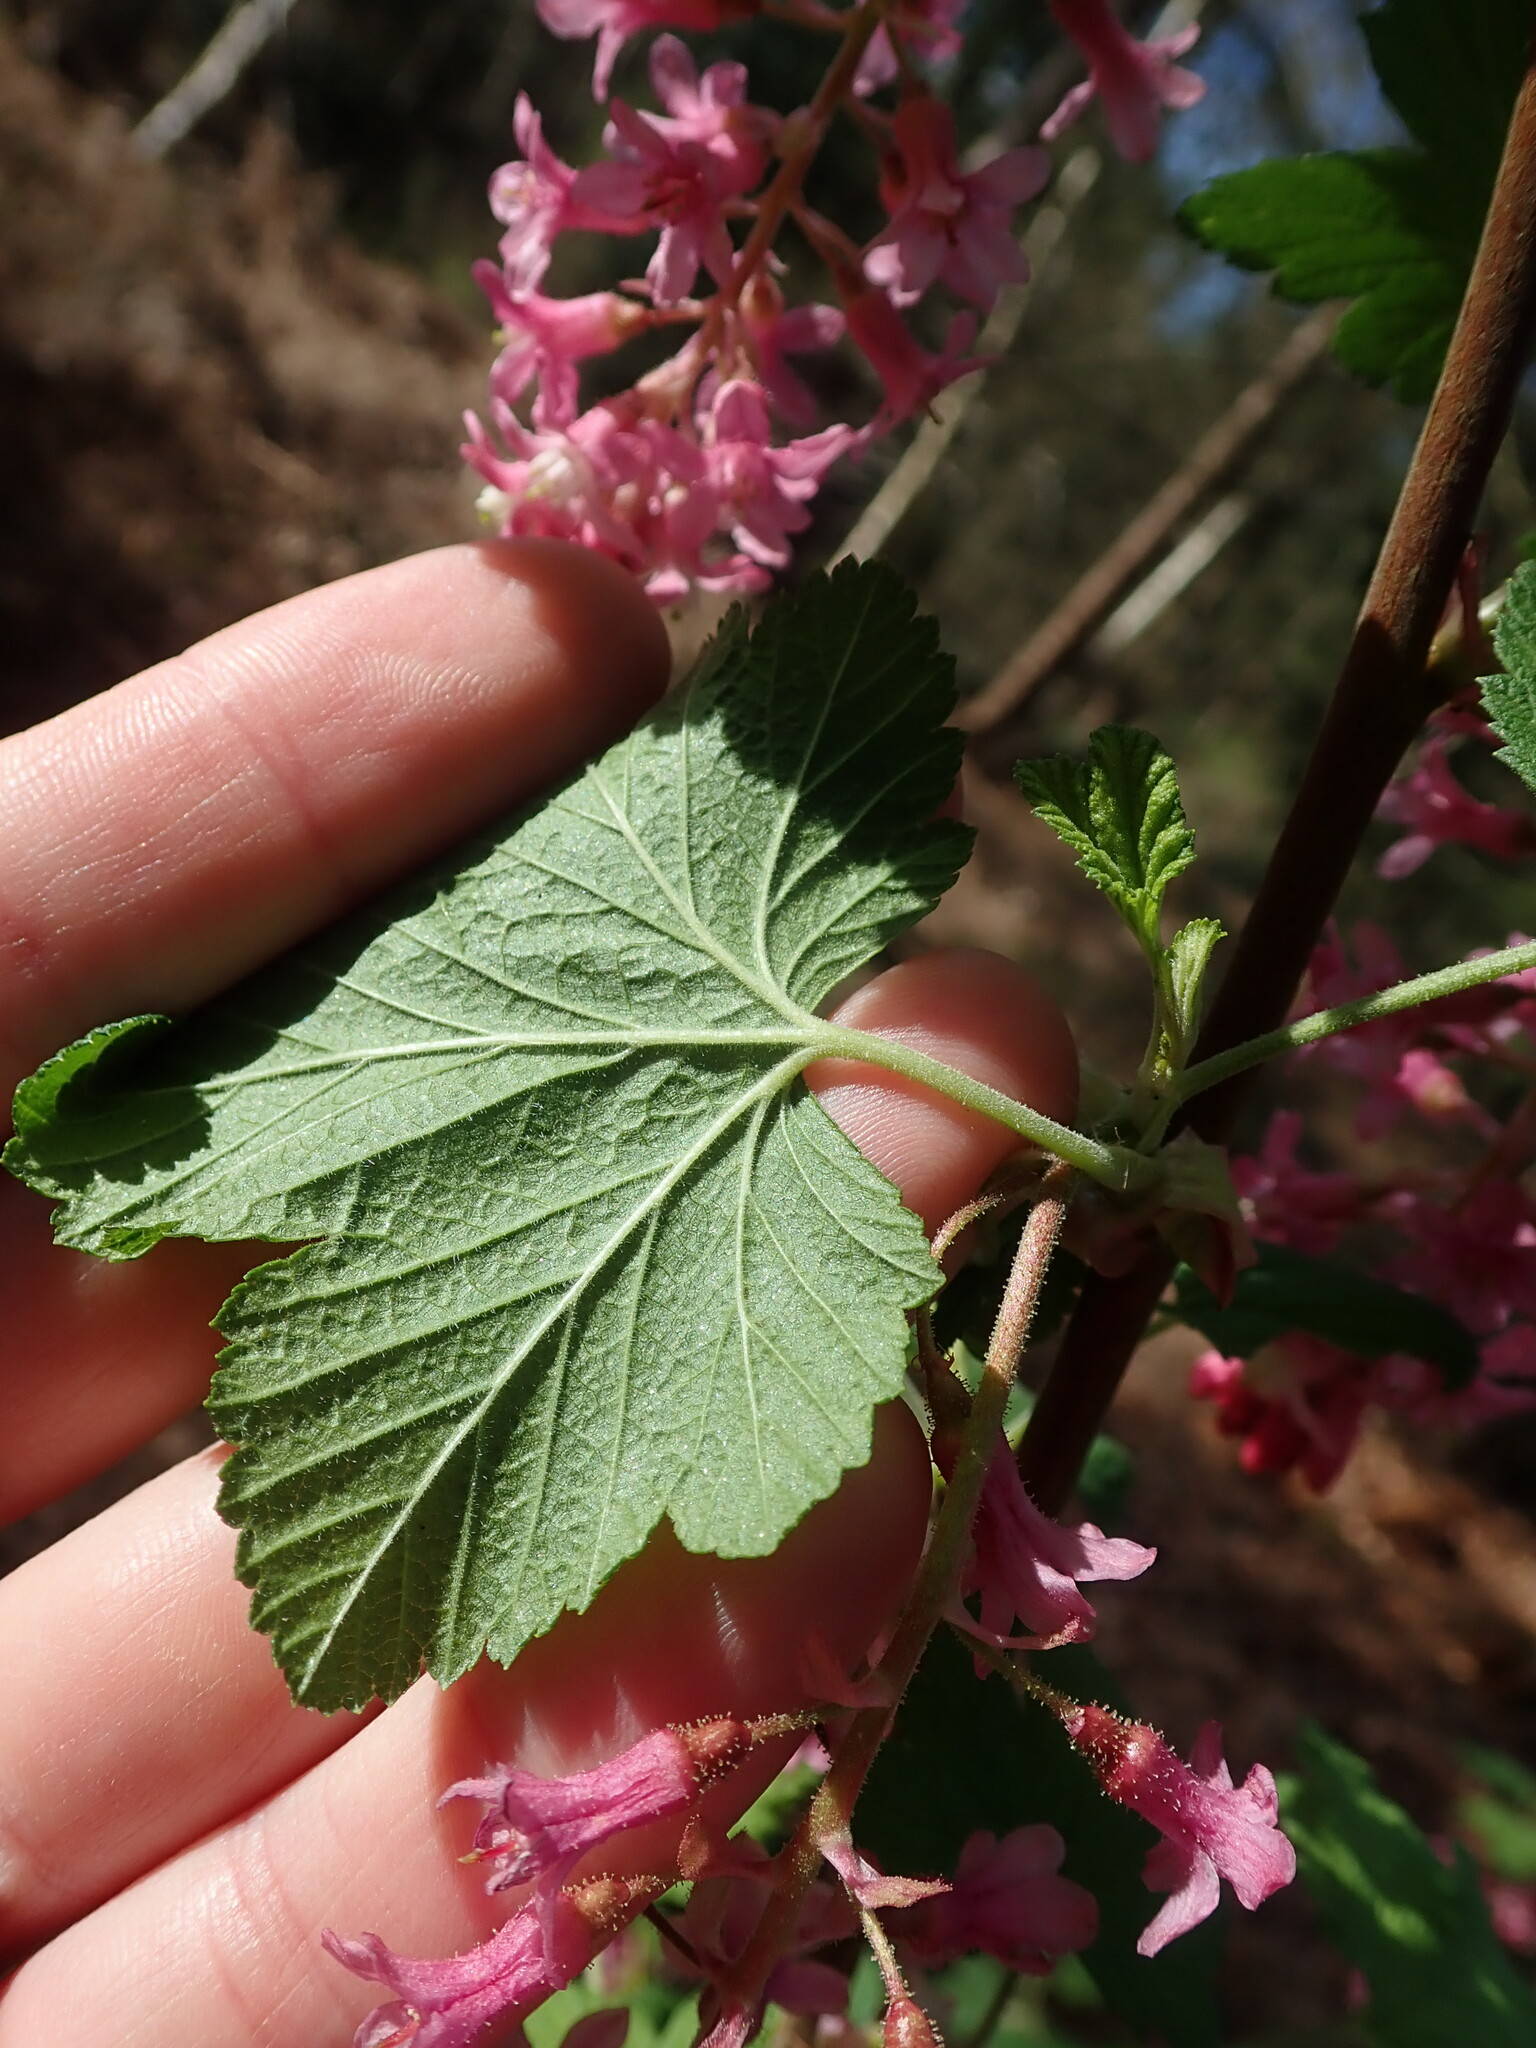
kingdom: Plantae
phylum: Tracheophyta
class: Magnoliopsida
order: Saxifragales
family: Grossulariaceae
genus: Ribes
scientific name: Ribes sanguineum
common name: Flowering currant
